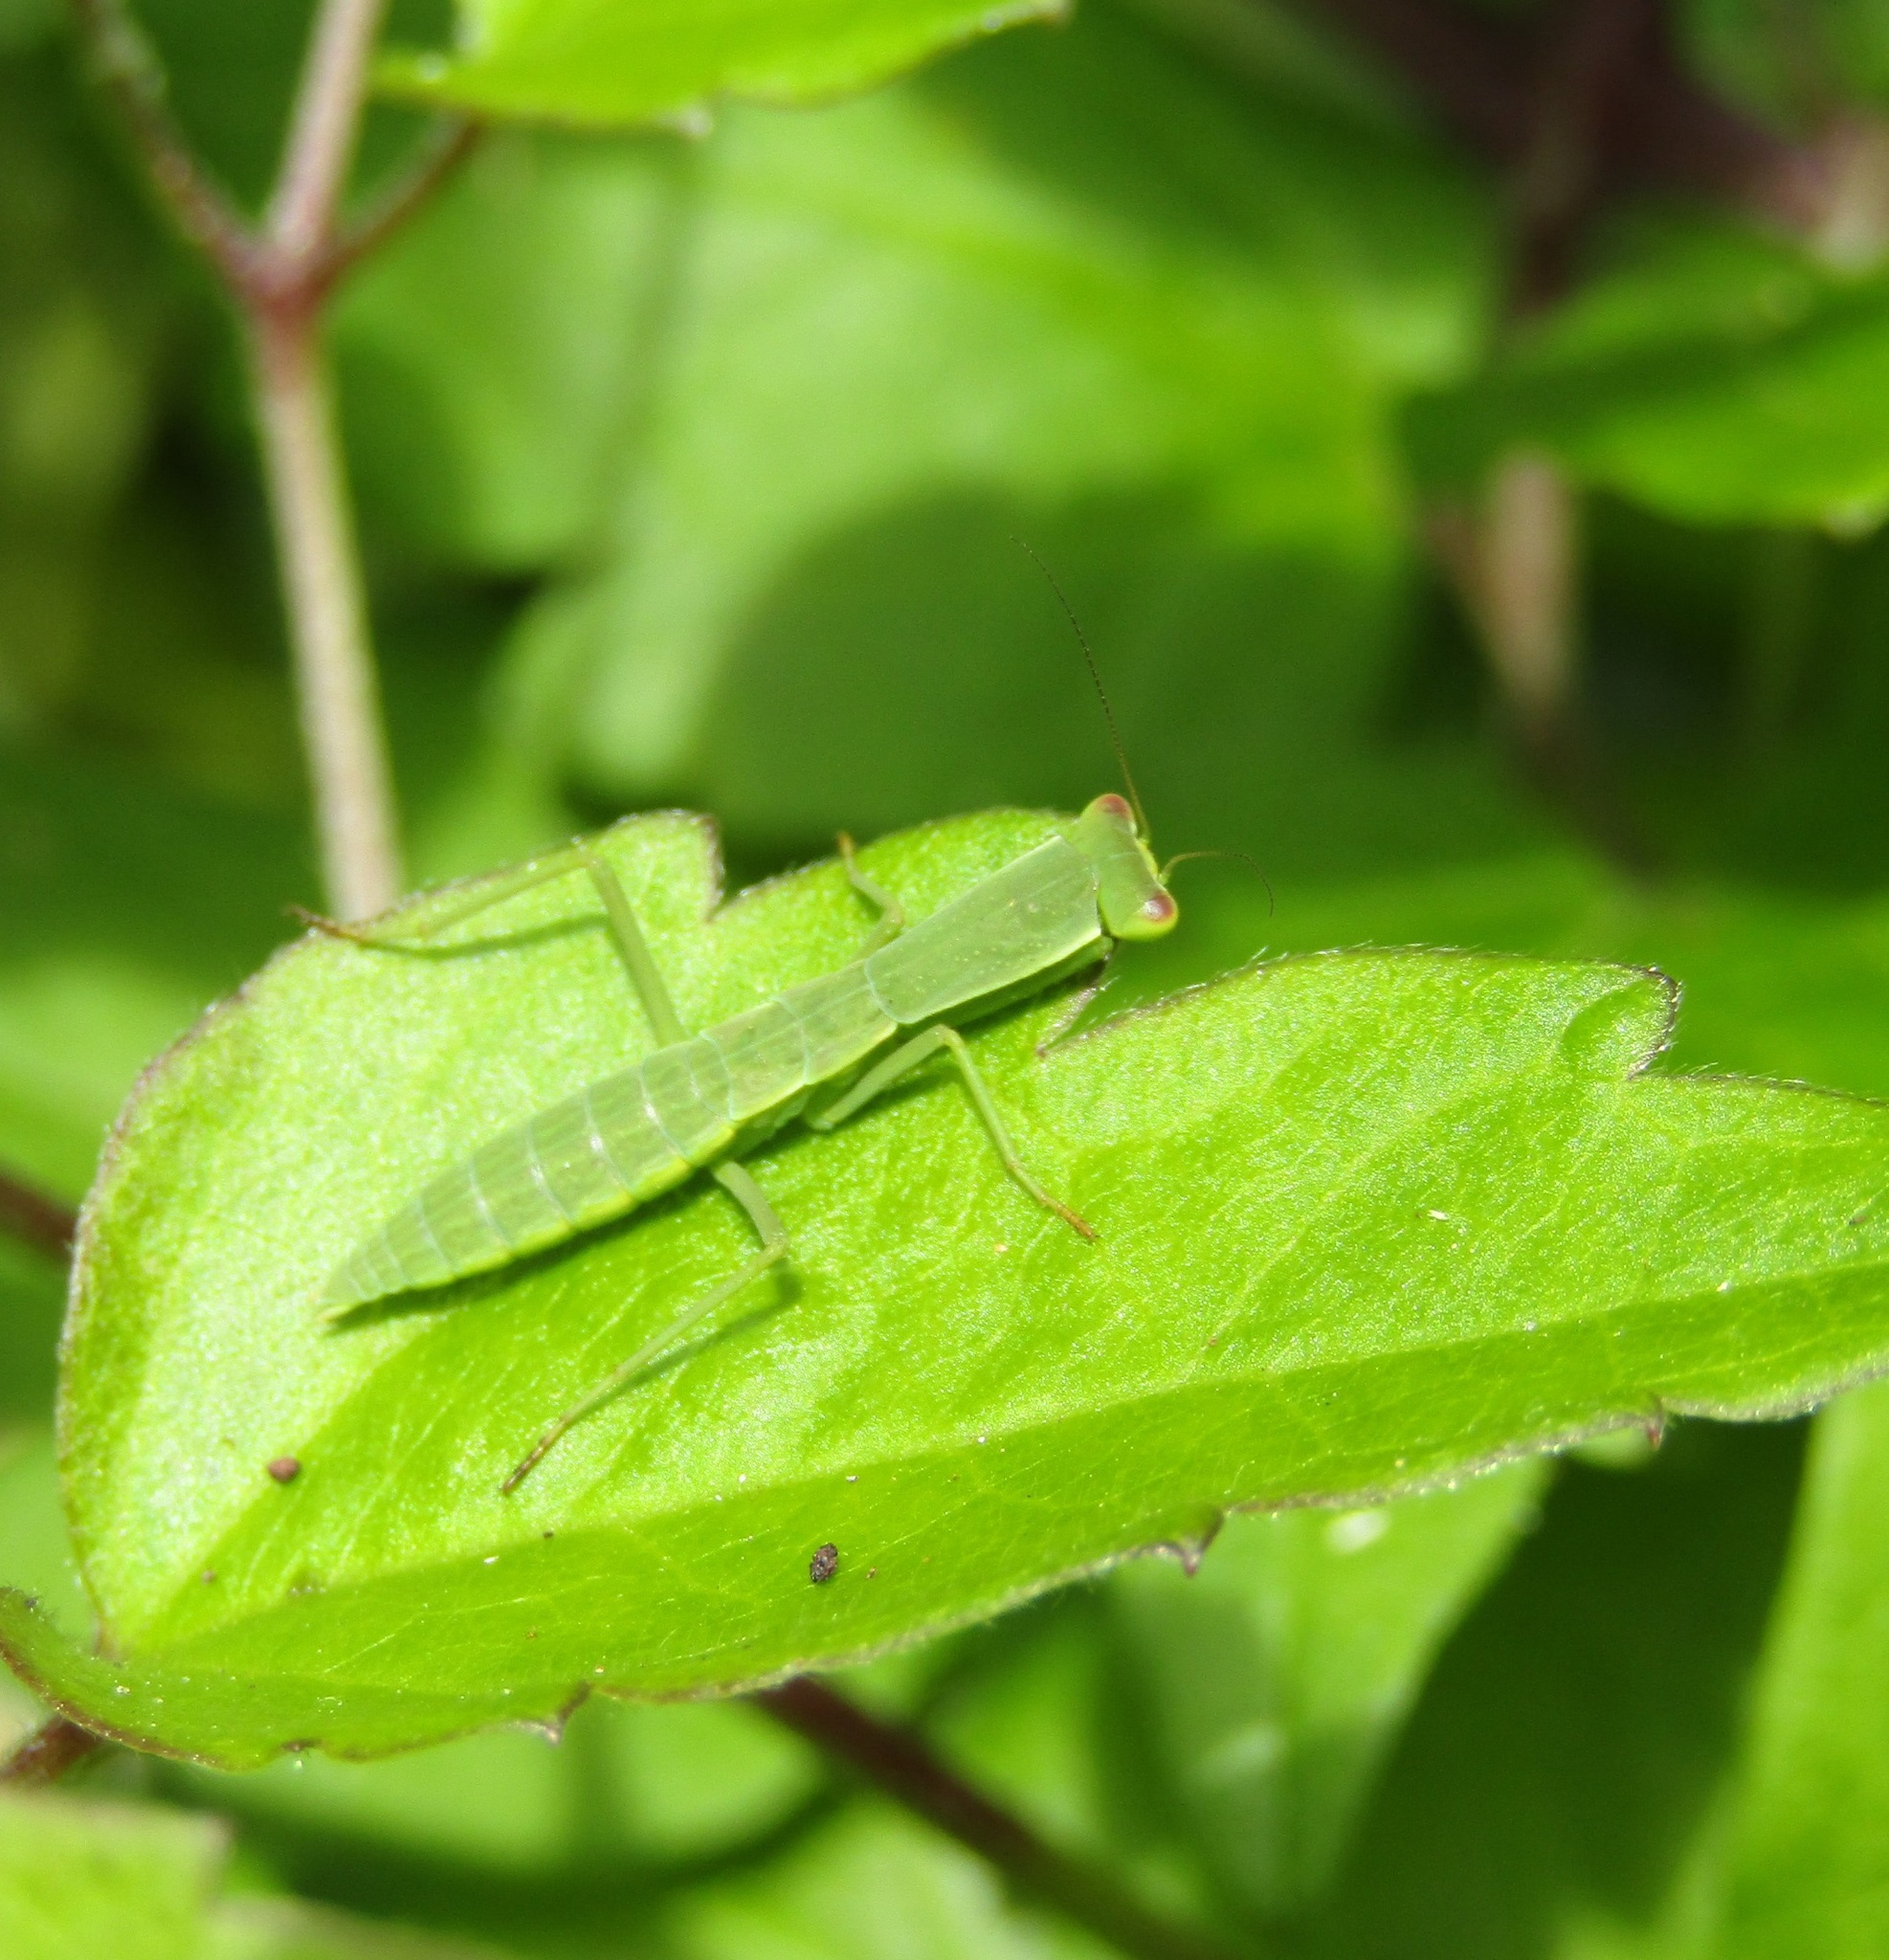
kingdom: Animalia
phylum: Arthropoda
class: Insecta
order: Mantodea
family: Mantidae
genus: Orthodera
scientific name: Orthodera novaezealandiae
